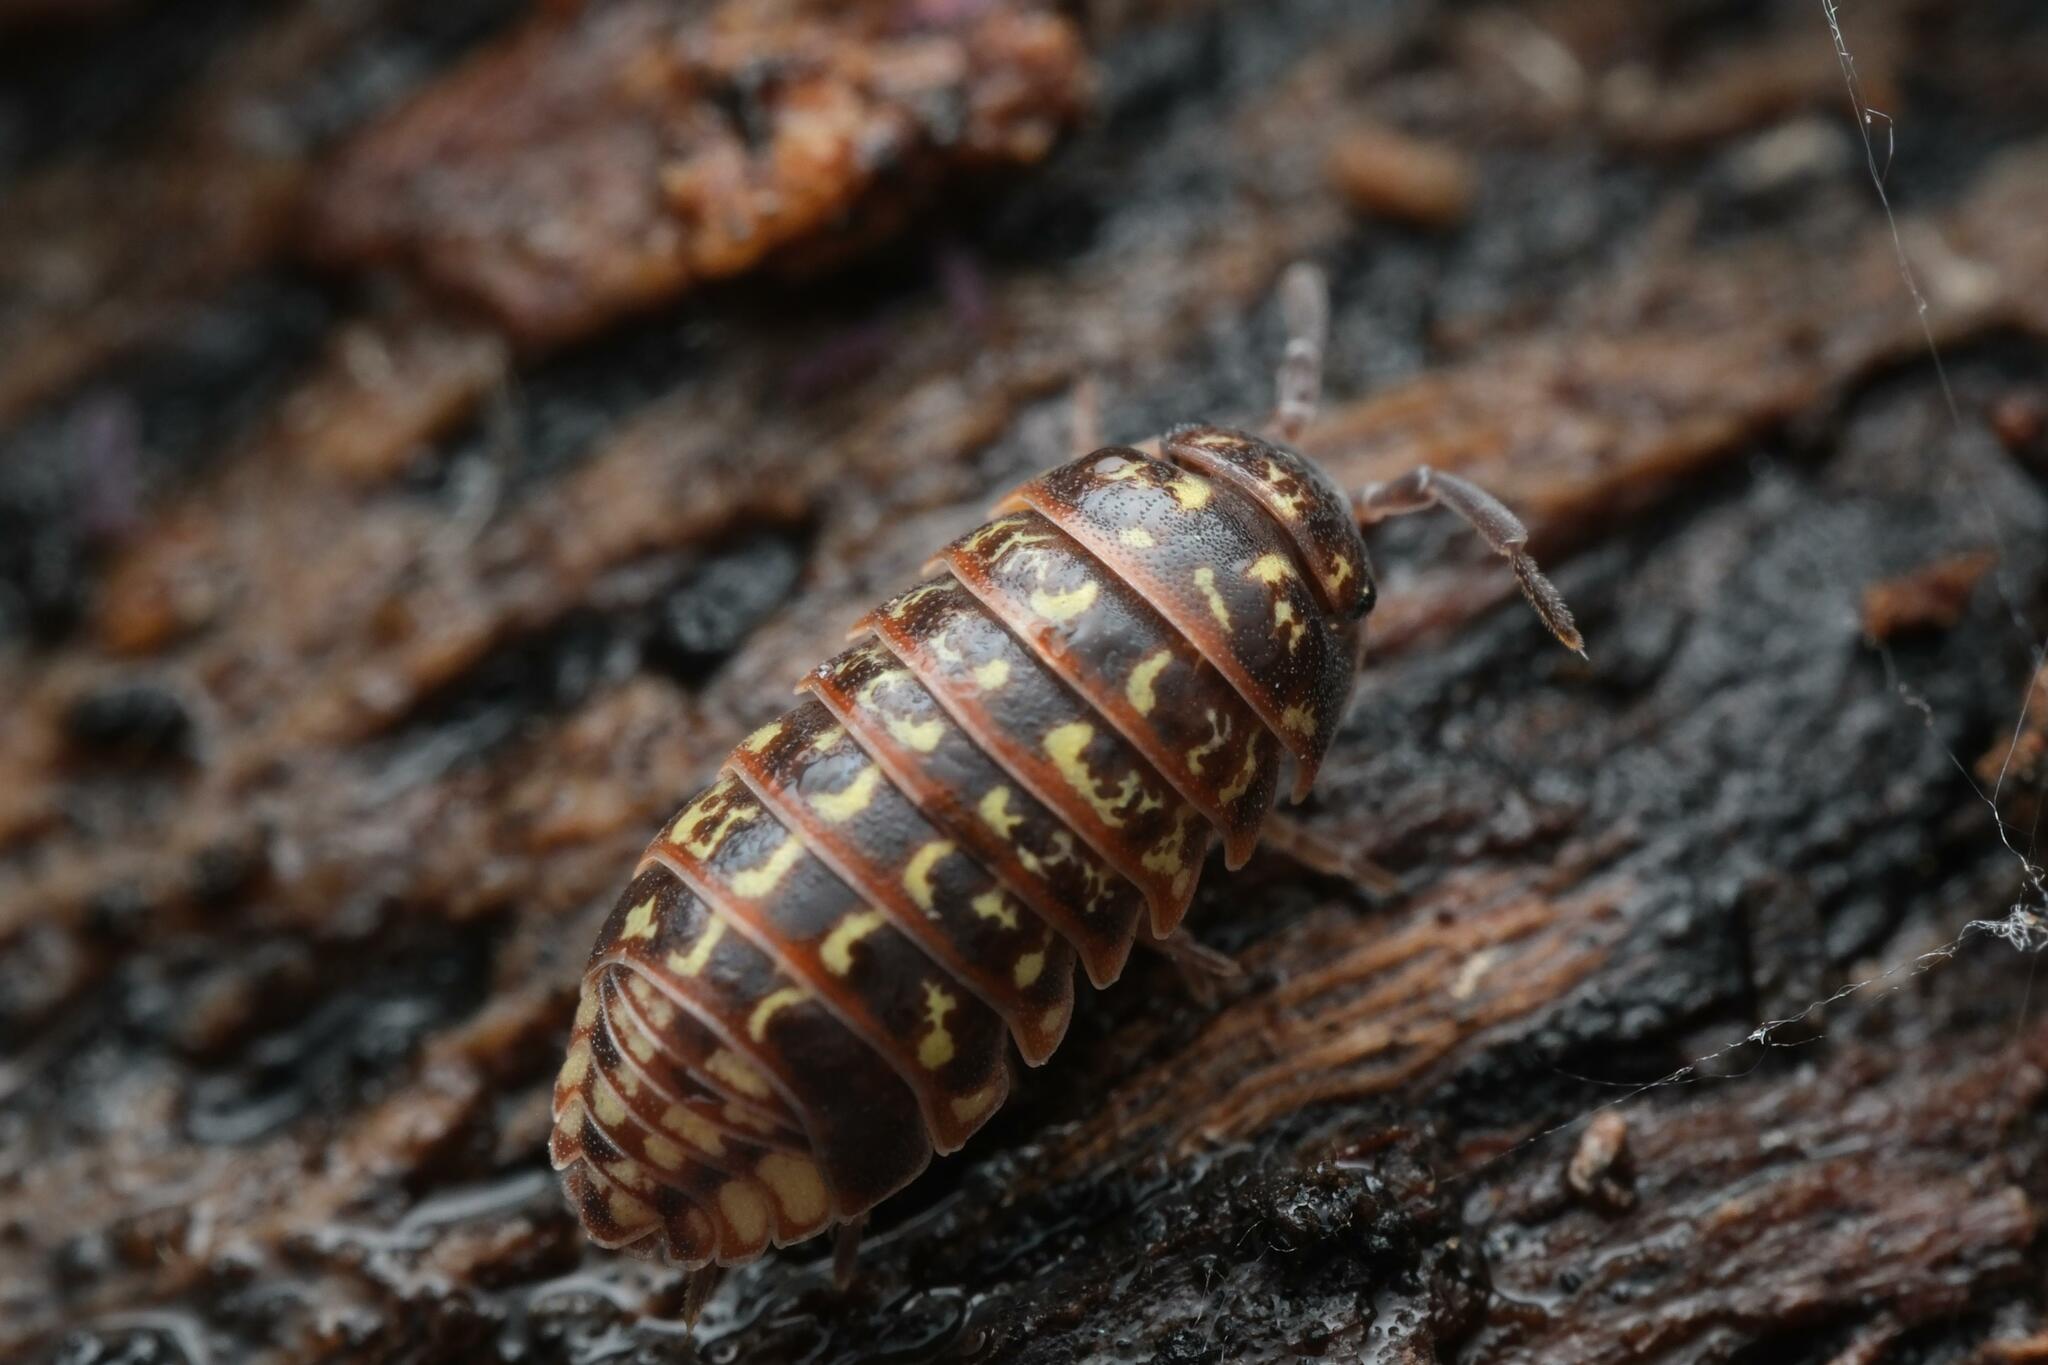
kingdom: Animalia
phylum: Arthropoda
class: Malacostraca
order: Isopoda
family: Armadillidiidae
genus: Armadillidium
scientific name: Armadillidium pulchellum
